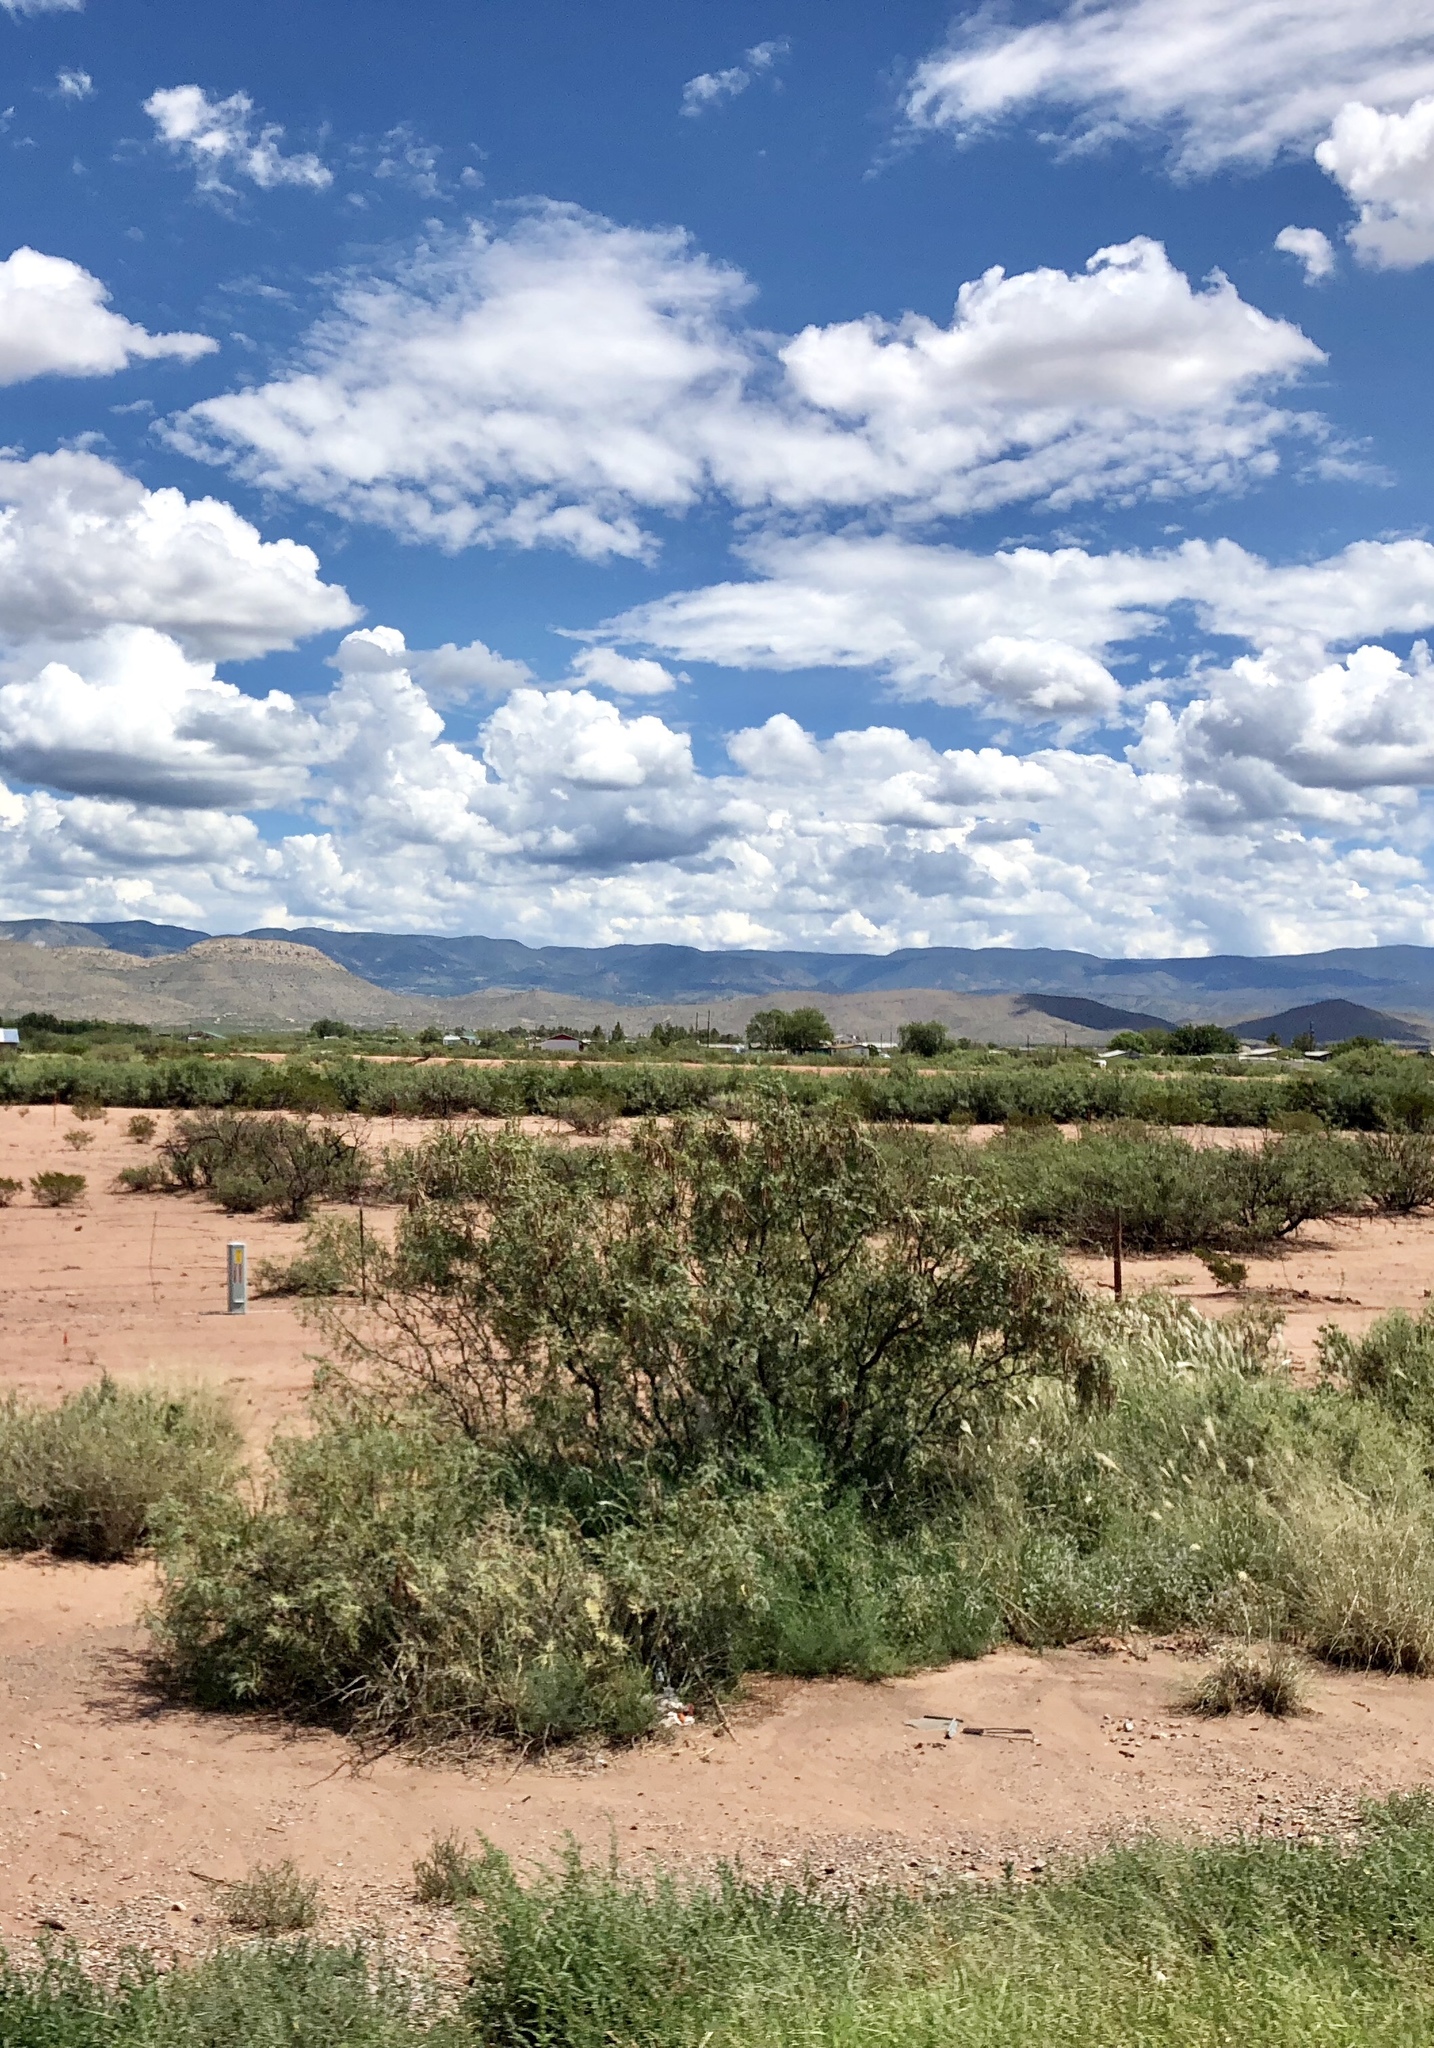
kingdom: Plantae
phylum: Tracheophyta
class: Magnoliopsida
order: Zygophyllales
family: Zygophyllaceae
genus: Larrea
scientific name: Larrea tridentata
